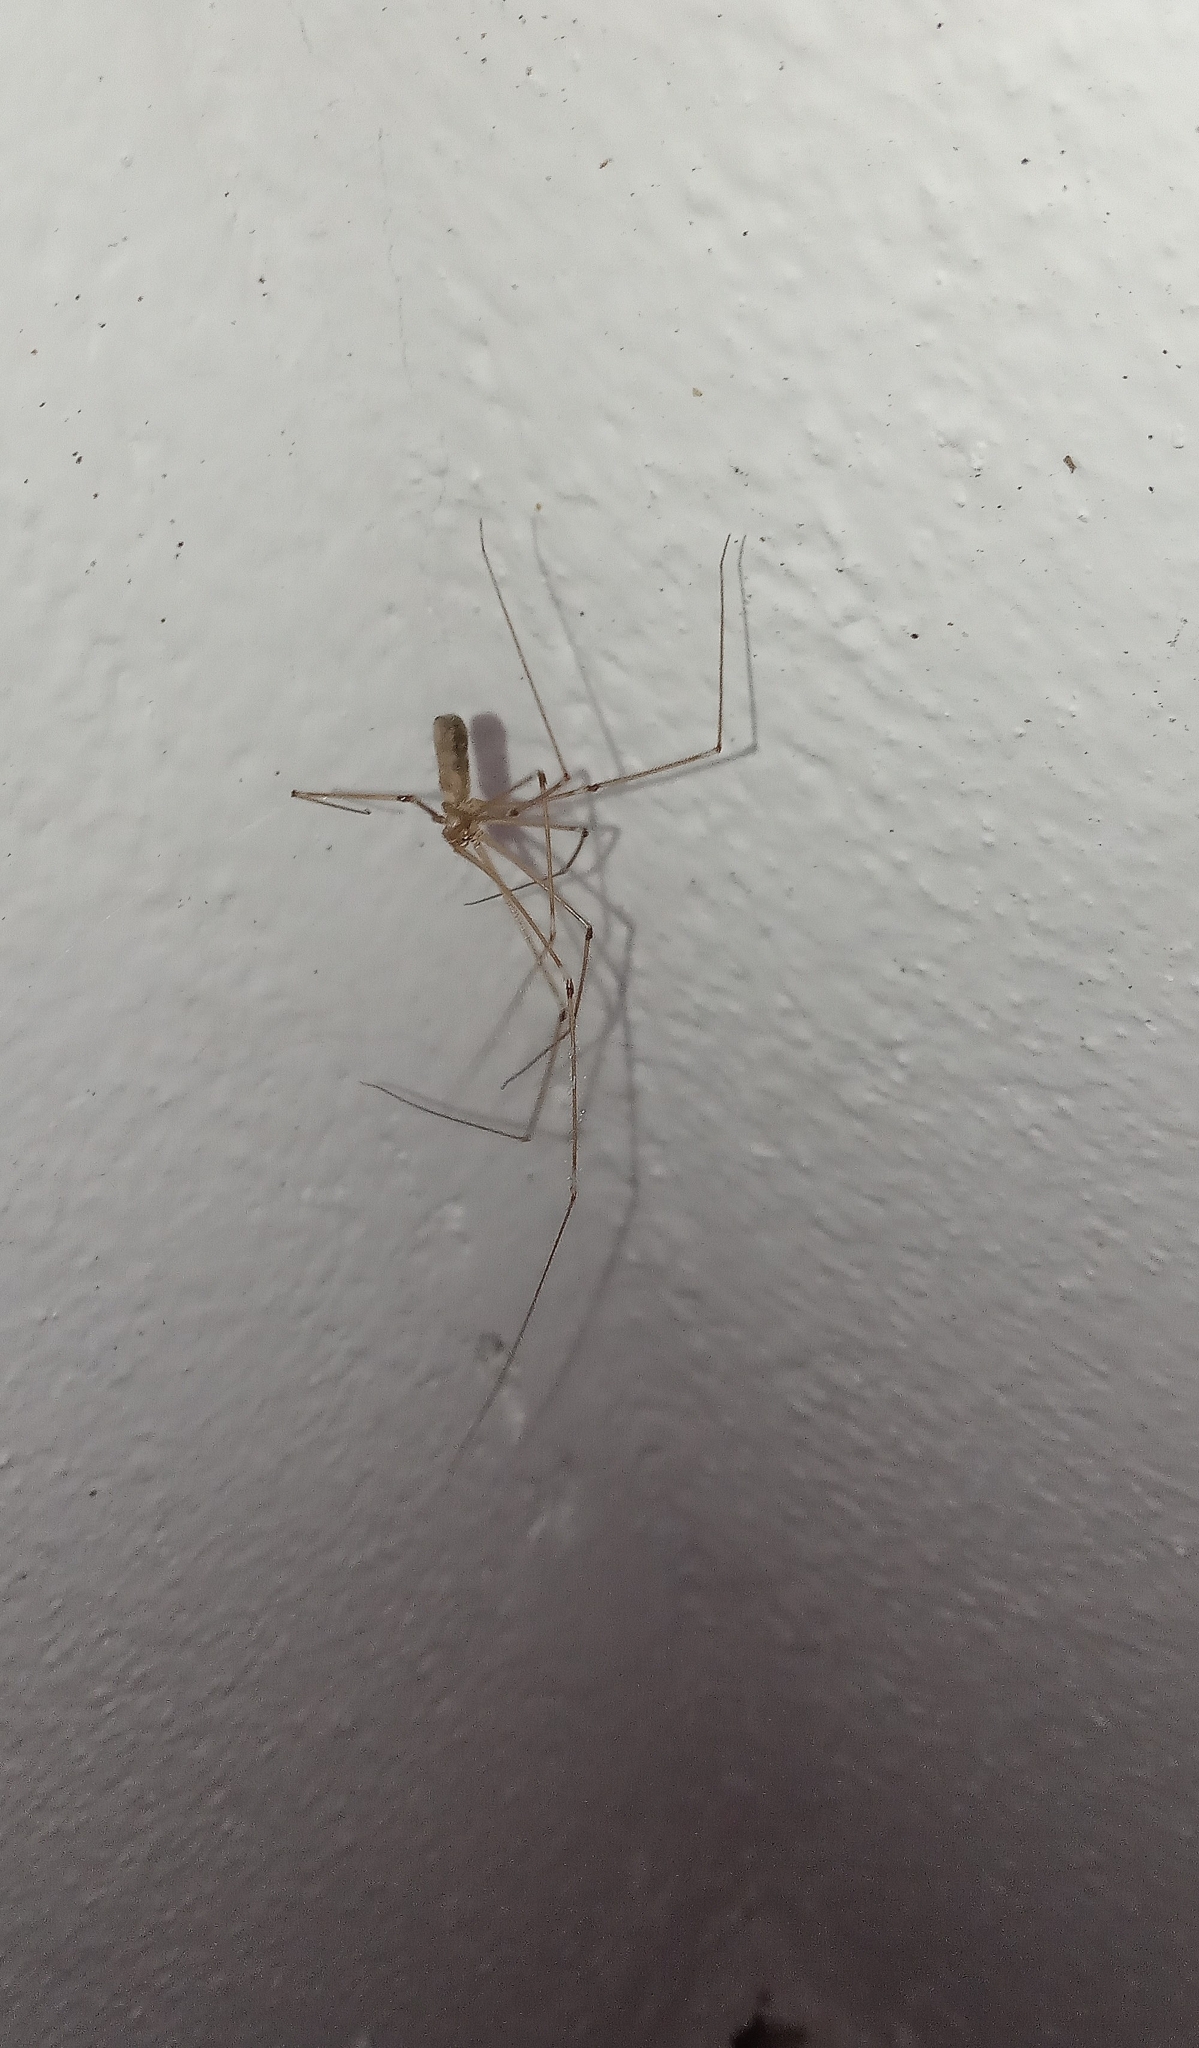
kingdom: Animalia
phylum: Arthropoda
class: Arachnida
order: Araneae
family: Pholcidae
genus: Pholcus
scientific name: Pholcus phalangioides
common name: Longbodied cellar spider
